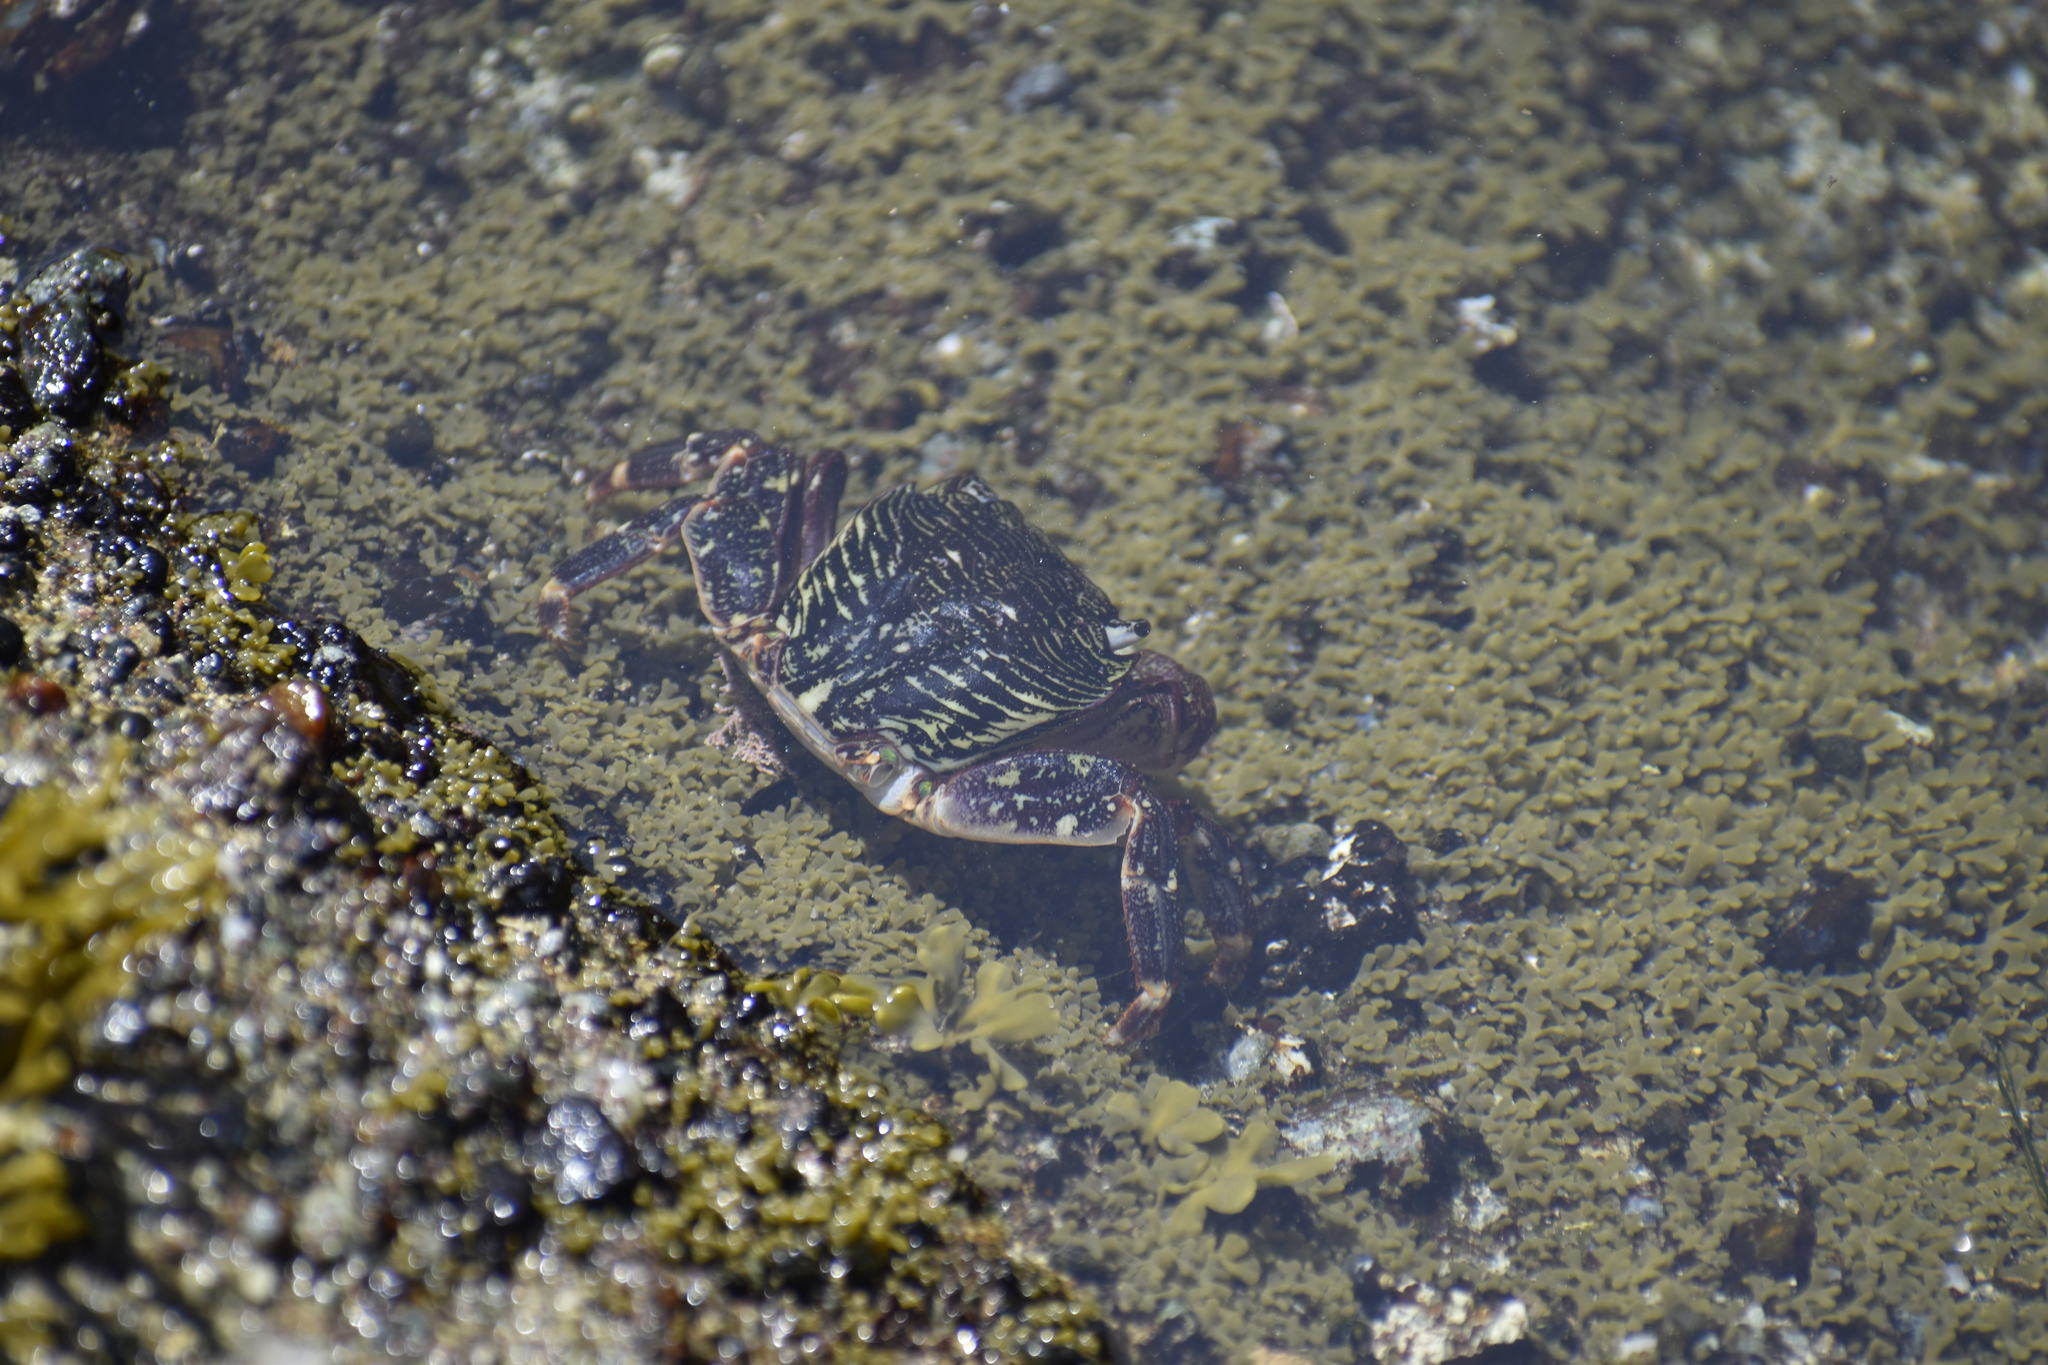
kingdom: Animalia
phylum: Arthropoda
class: Malacostraca
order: Decapoda
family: Grapsidae
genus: Pachygrapsus
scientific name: Pachygrapsus crassipes
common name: Striped shore crab
